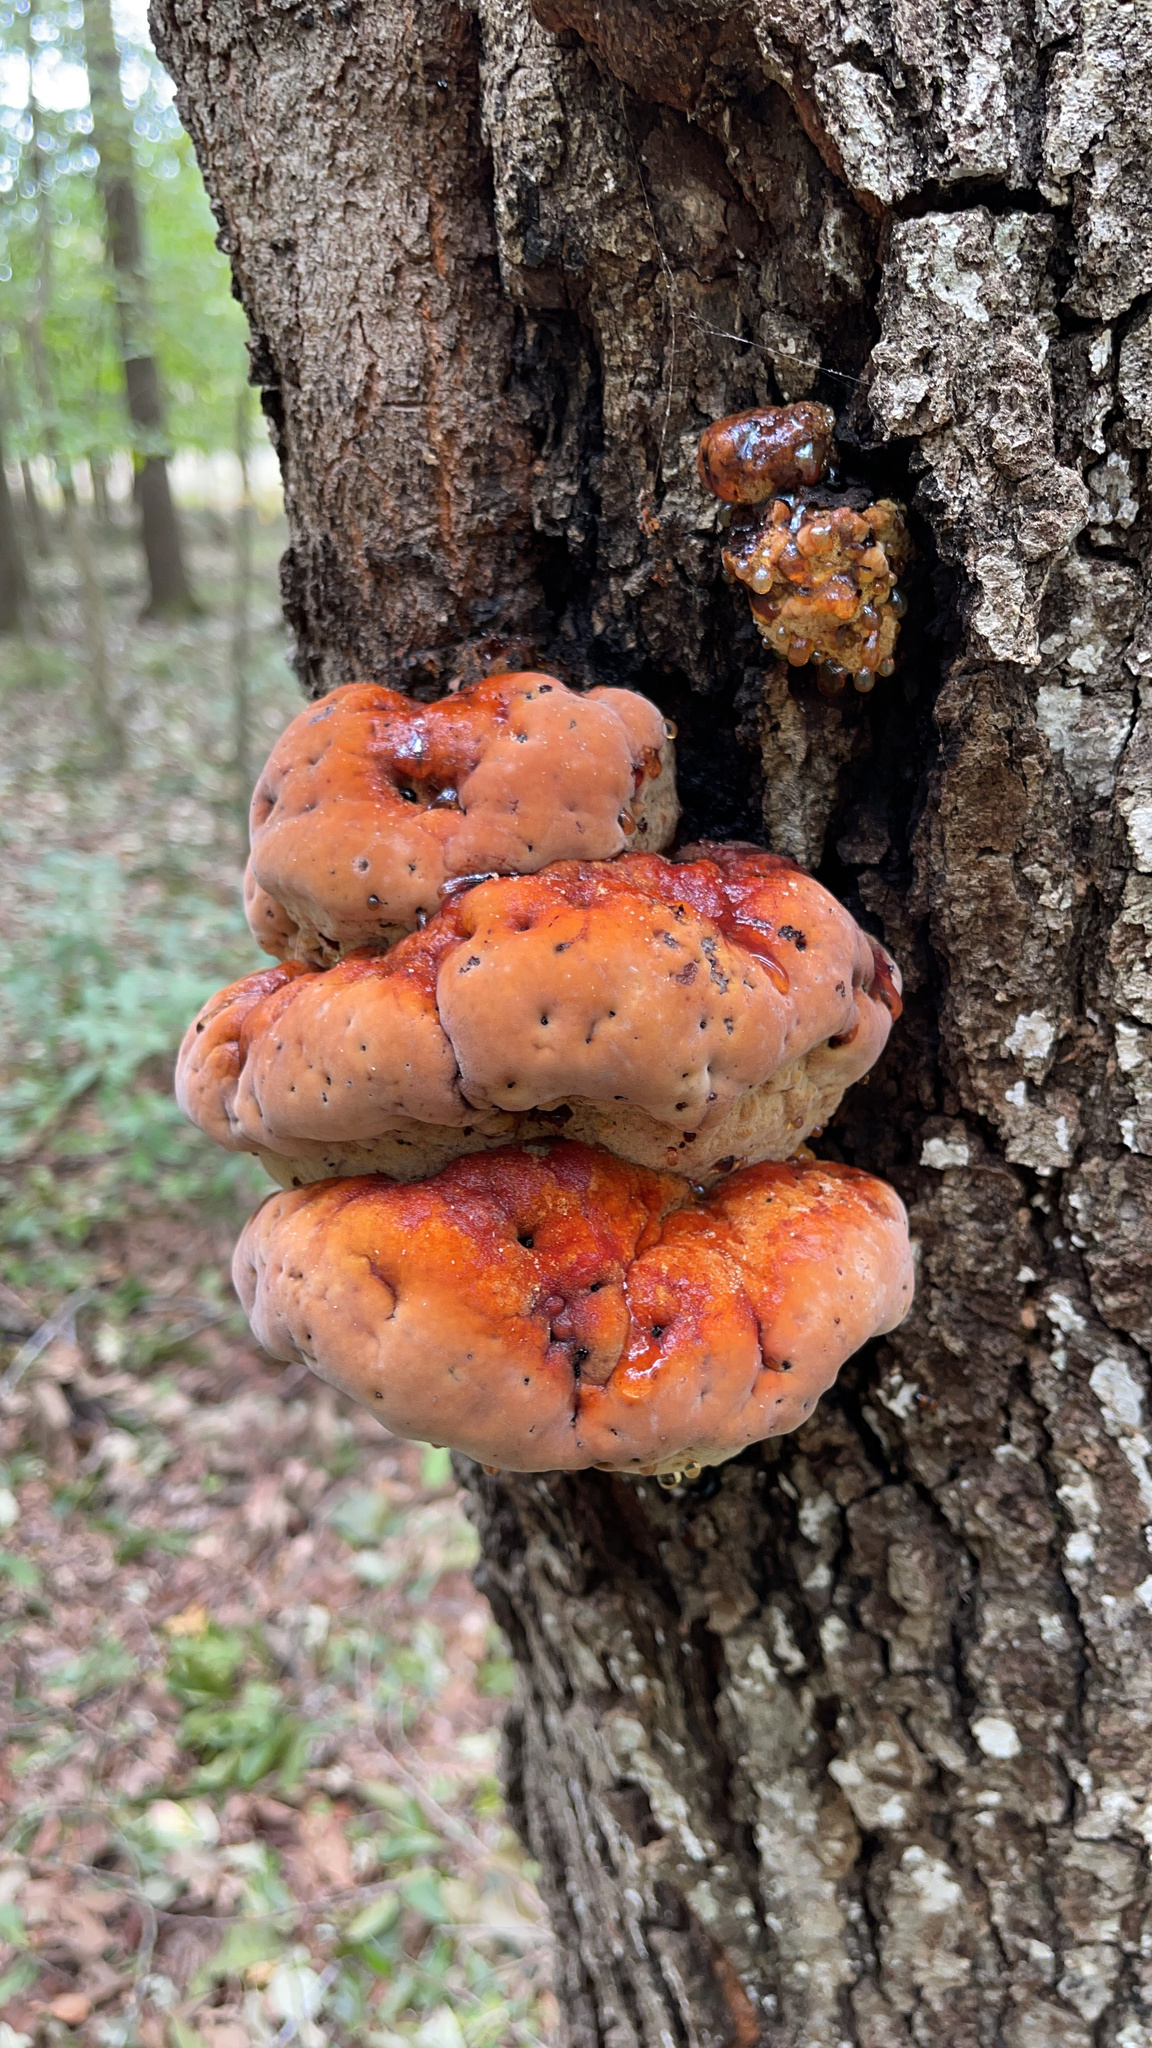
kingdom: Fungi
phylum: Basidiomycota
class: Agaricomycetes
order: Hymenochaetales
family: Hymenochaetaceae
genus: Inonotus
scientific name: Inonotus hispidus
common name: Shaggy bracket
